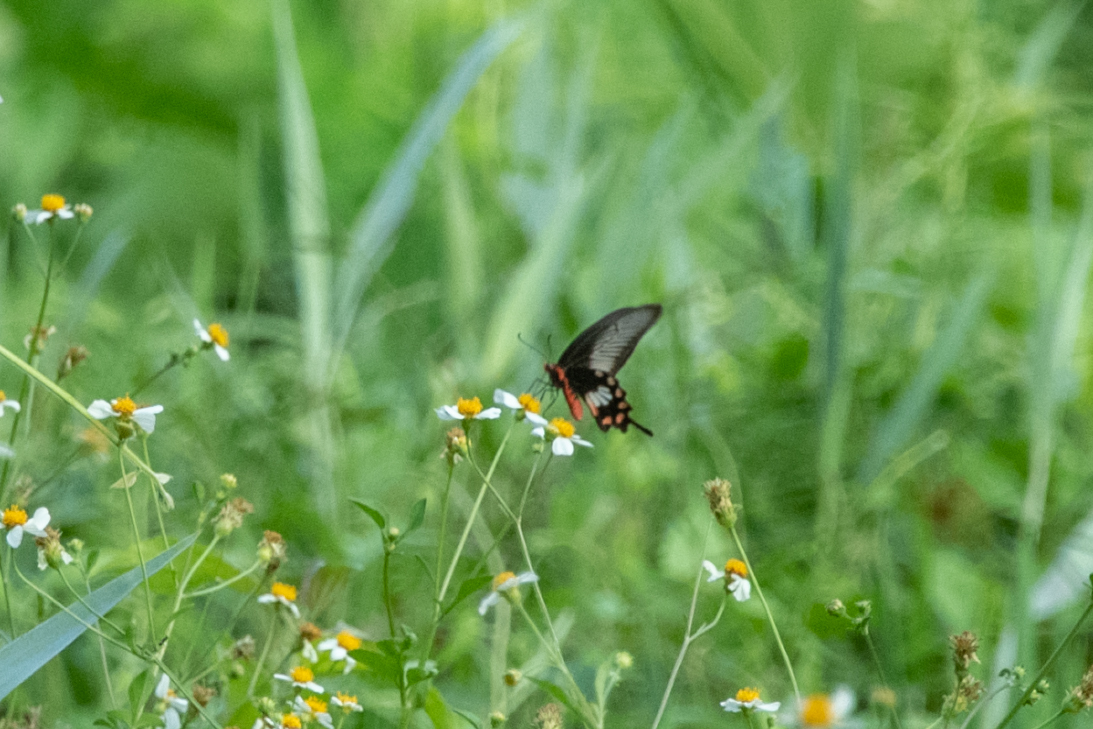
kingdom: Animalia
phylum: Arthropoda
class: Insecta
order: Lepidoptera
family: Papilionidae
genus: Pachliopta
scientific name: Pachliopta aristolochiae
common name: Common rose
